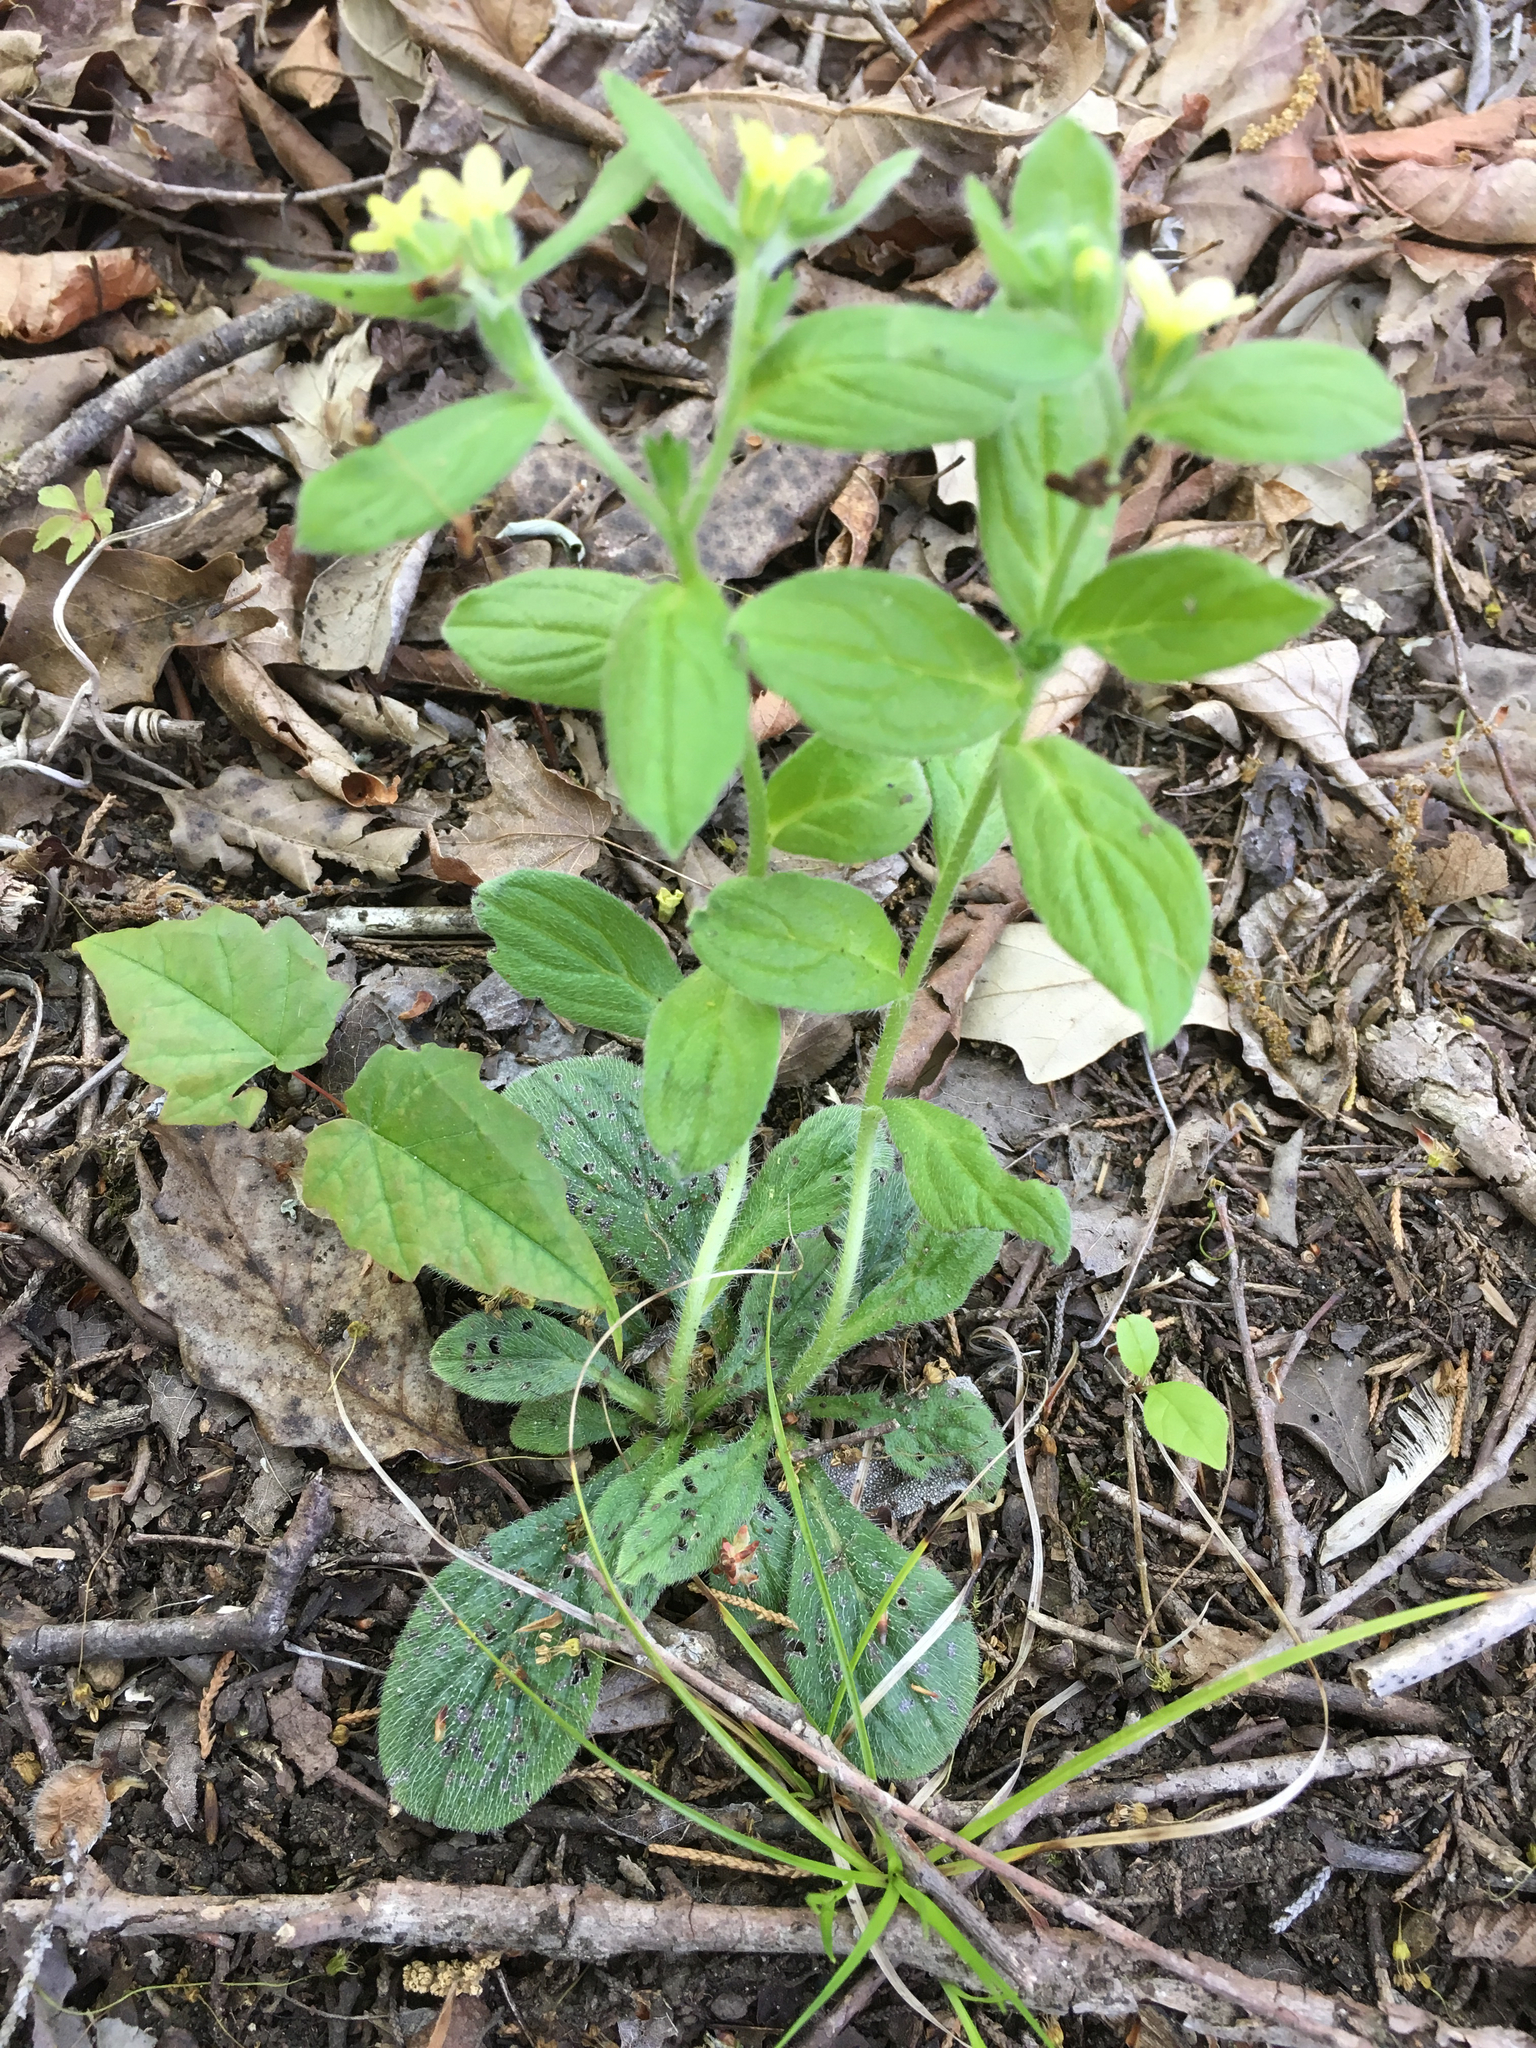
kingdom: Plantae
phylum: Tracheophyta
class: Magnoliopsida
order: Boraginales
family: Boraginaceae
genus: Lithospermum
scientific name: Lithospermum tuberosum
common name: Southern stoneseed
